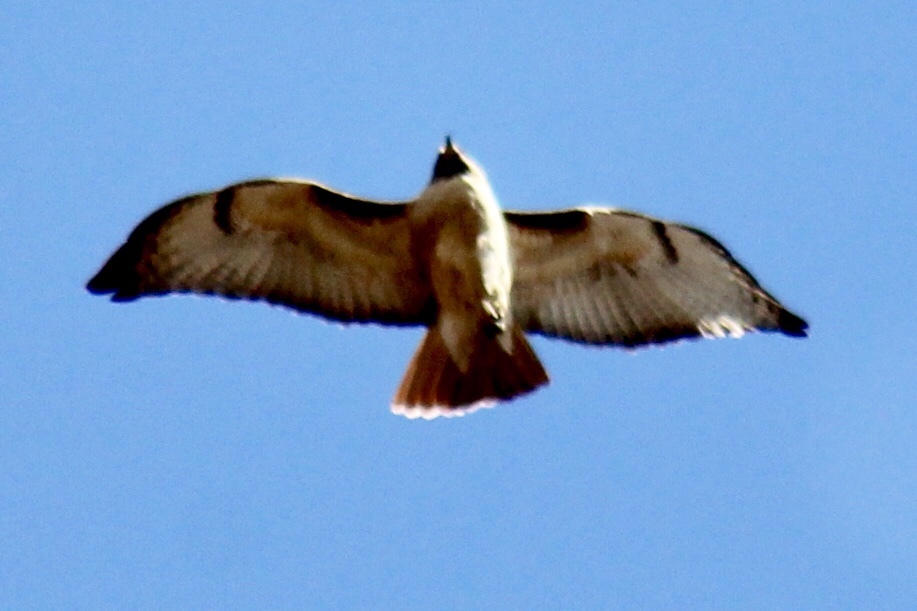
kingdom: Animalia
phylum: Chordata
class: Aves
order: Accipitriformes
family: Accipitridae
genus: Buteo
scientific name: Buteo jamaicensis
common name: Red-tailed hawk
